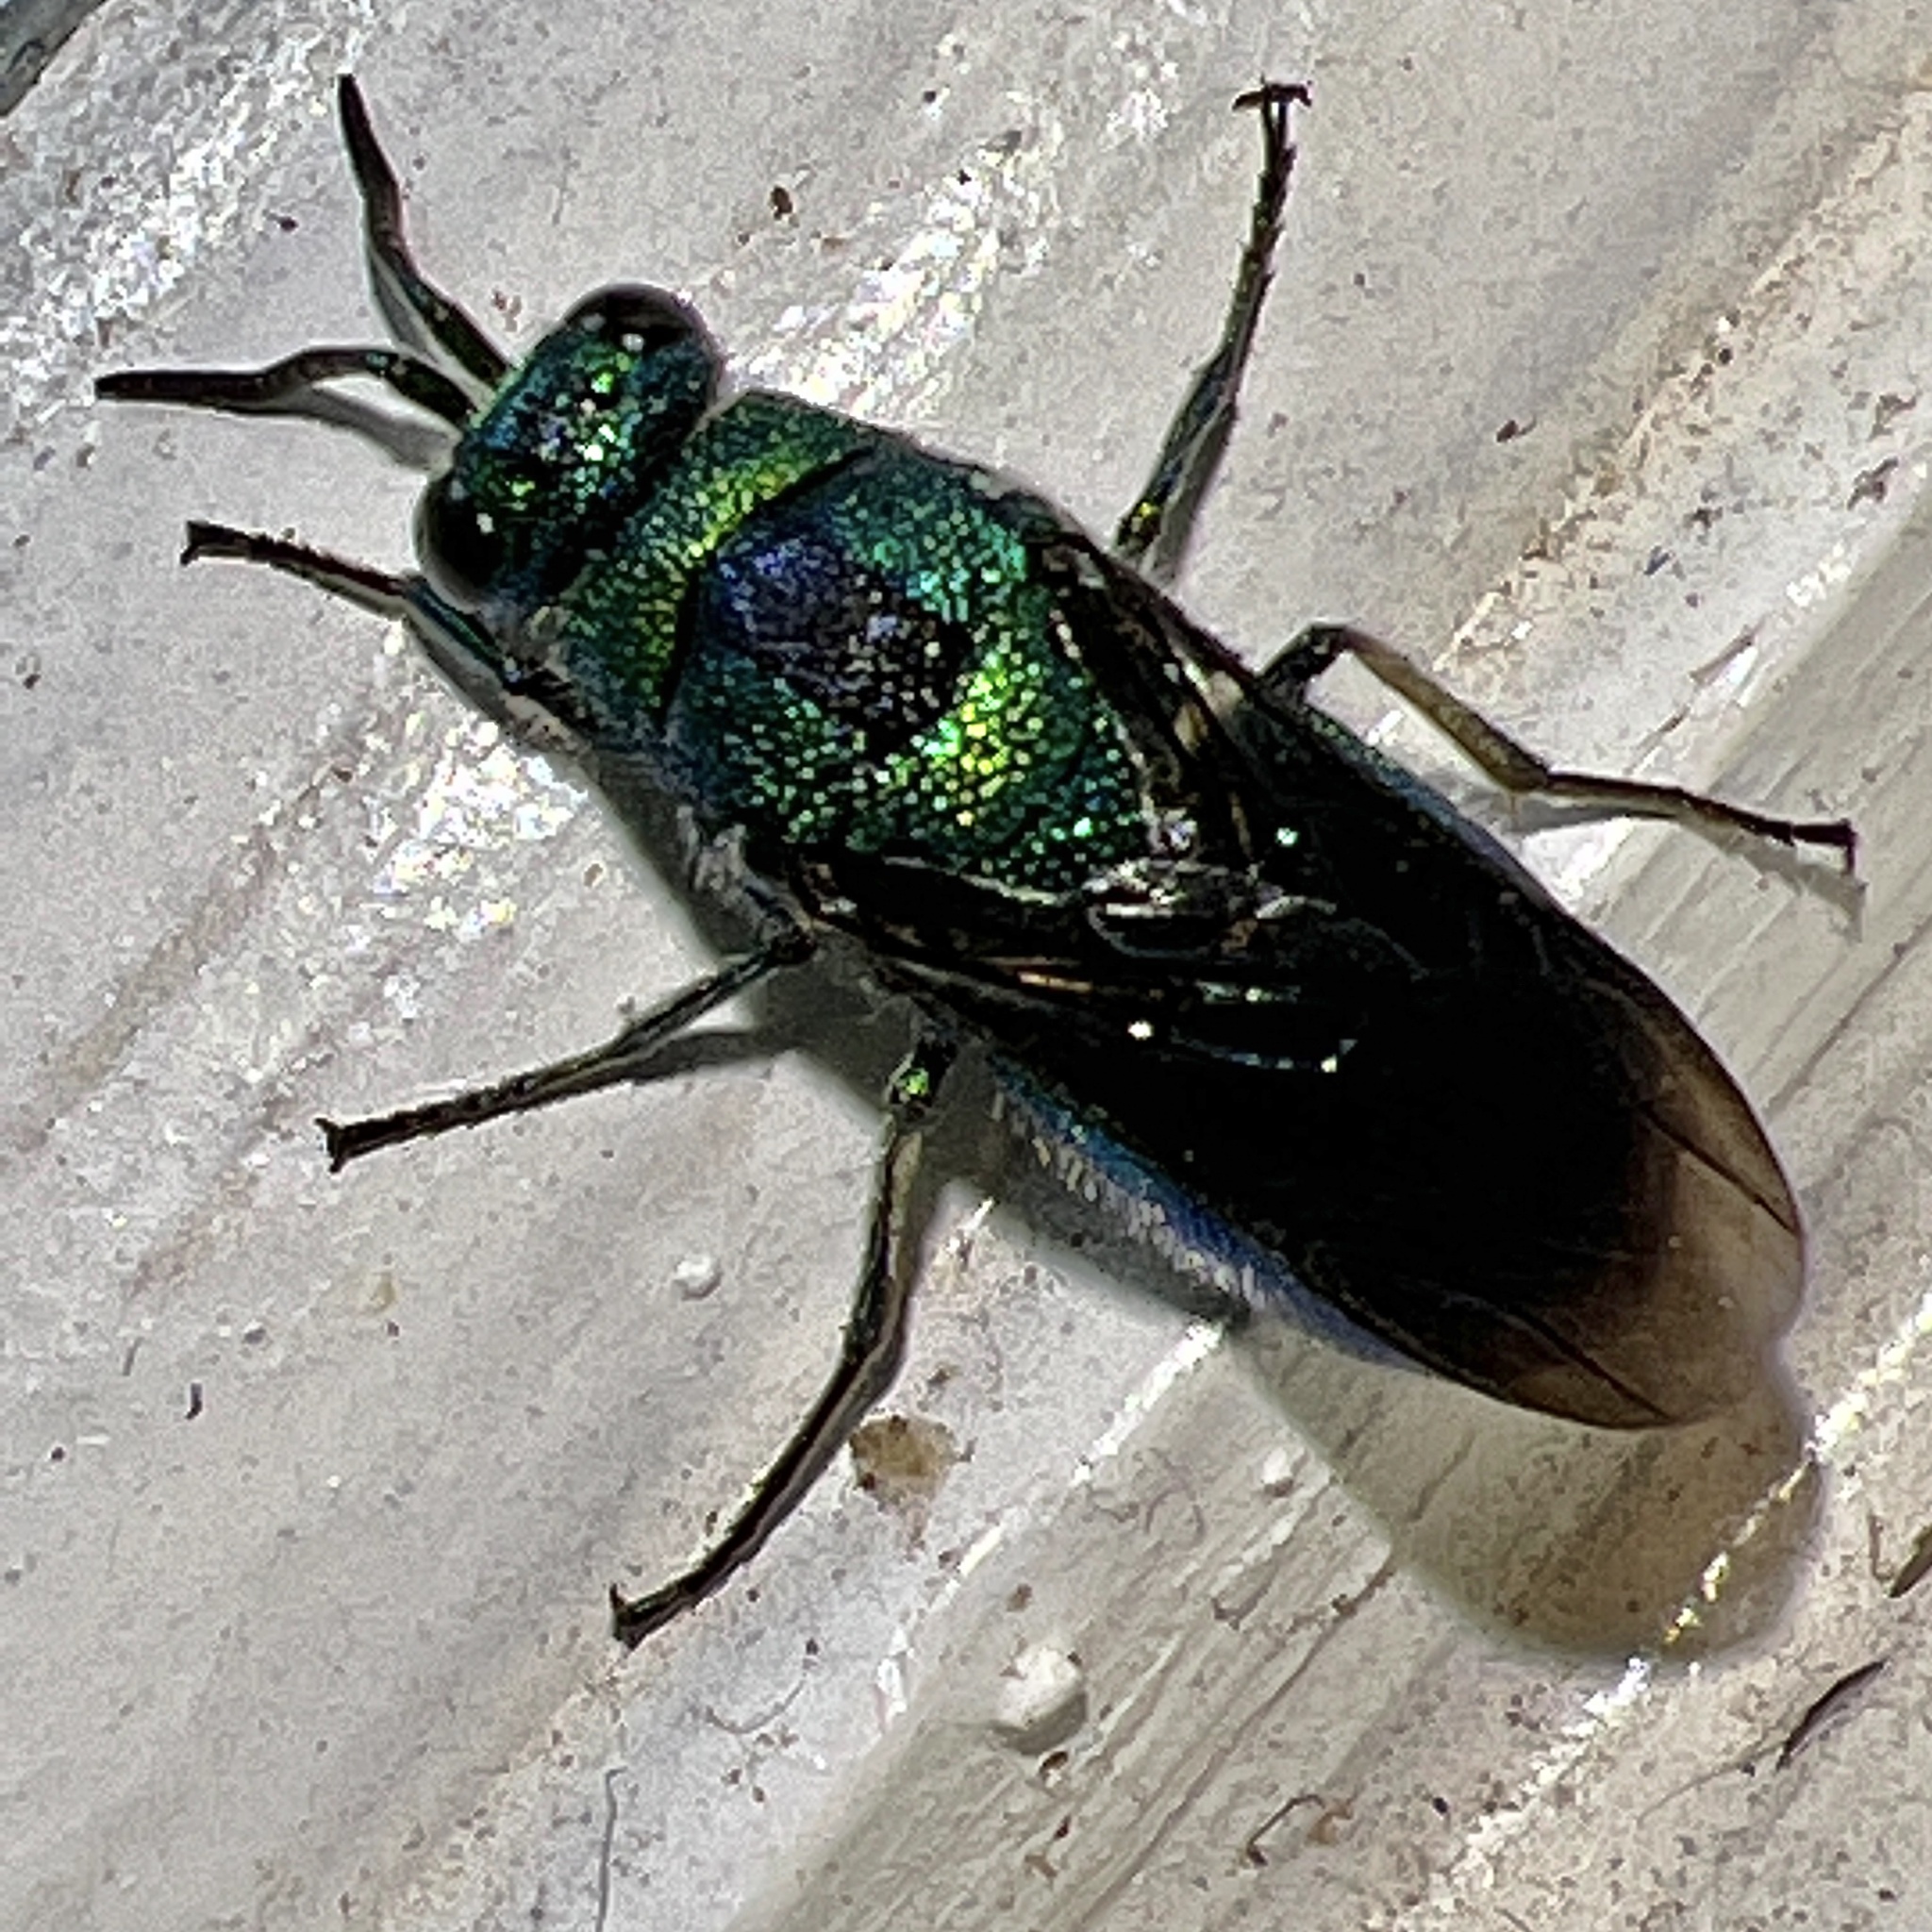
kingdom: Animalia
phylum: Arthropoda
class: Insecta
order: Hymenoptera
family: Chrysididae
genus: Chrysis
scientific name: Chrysis angolensis
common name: Cuckoo wasp
